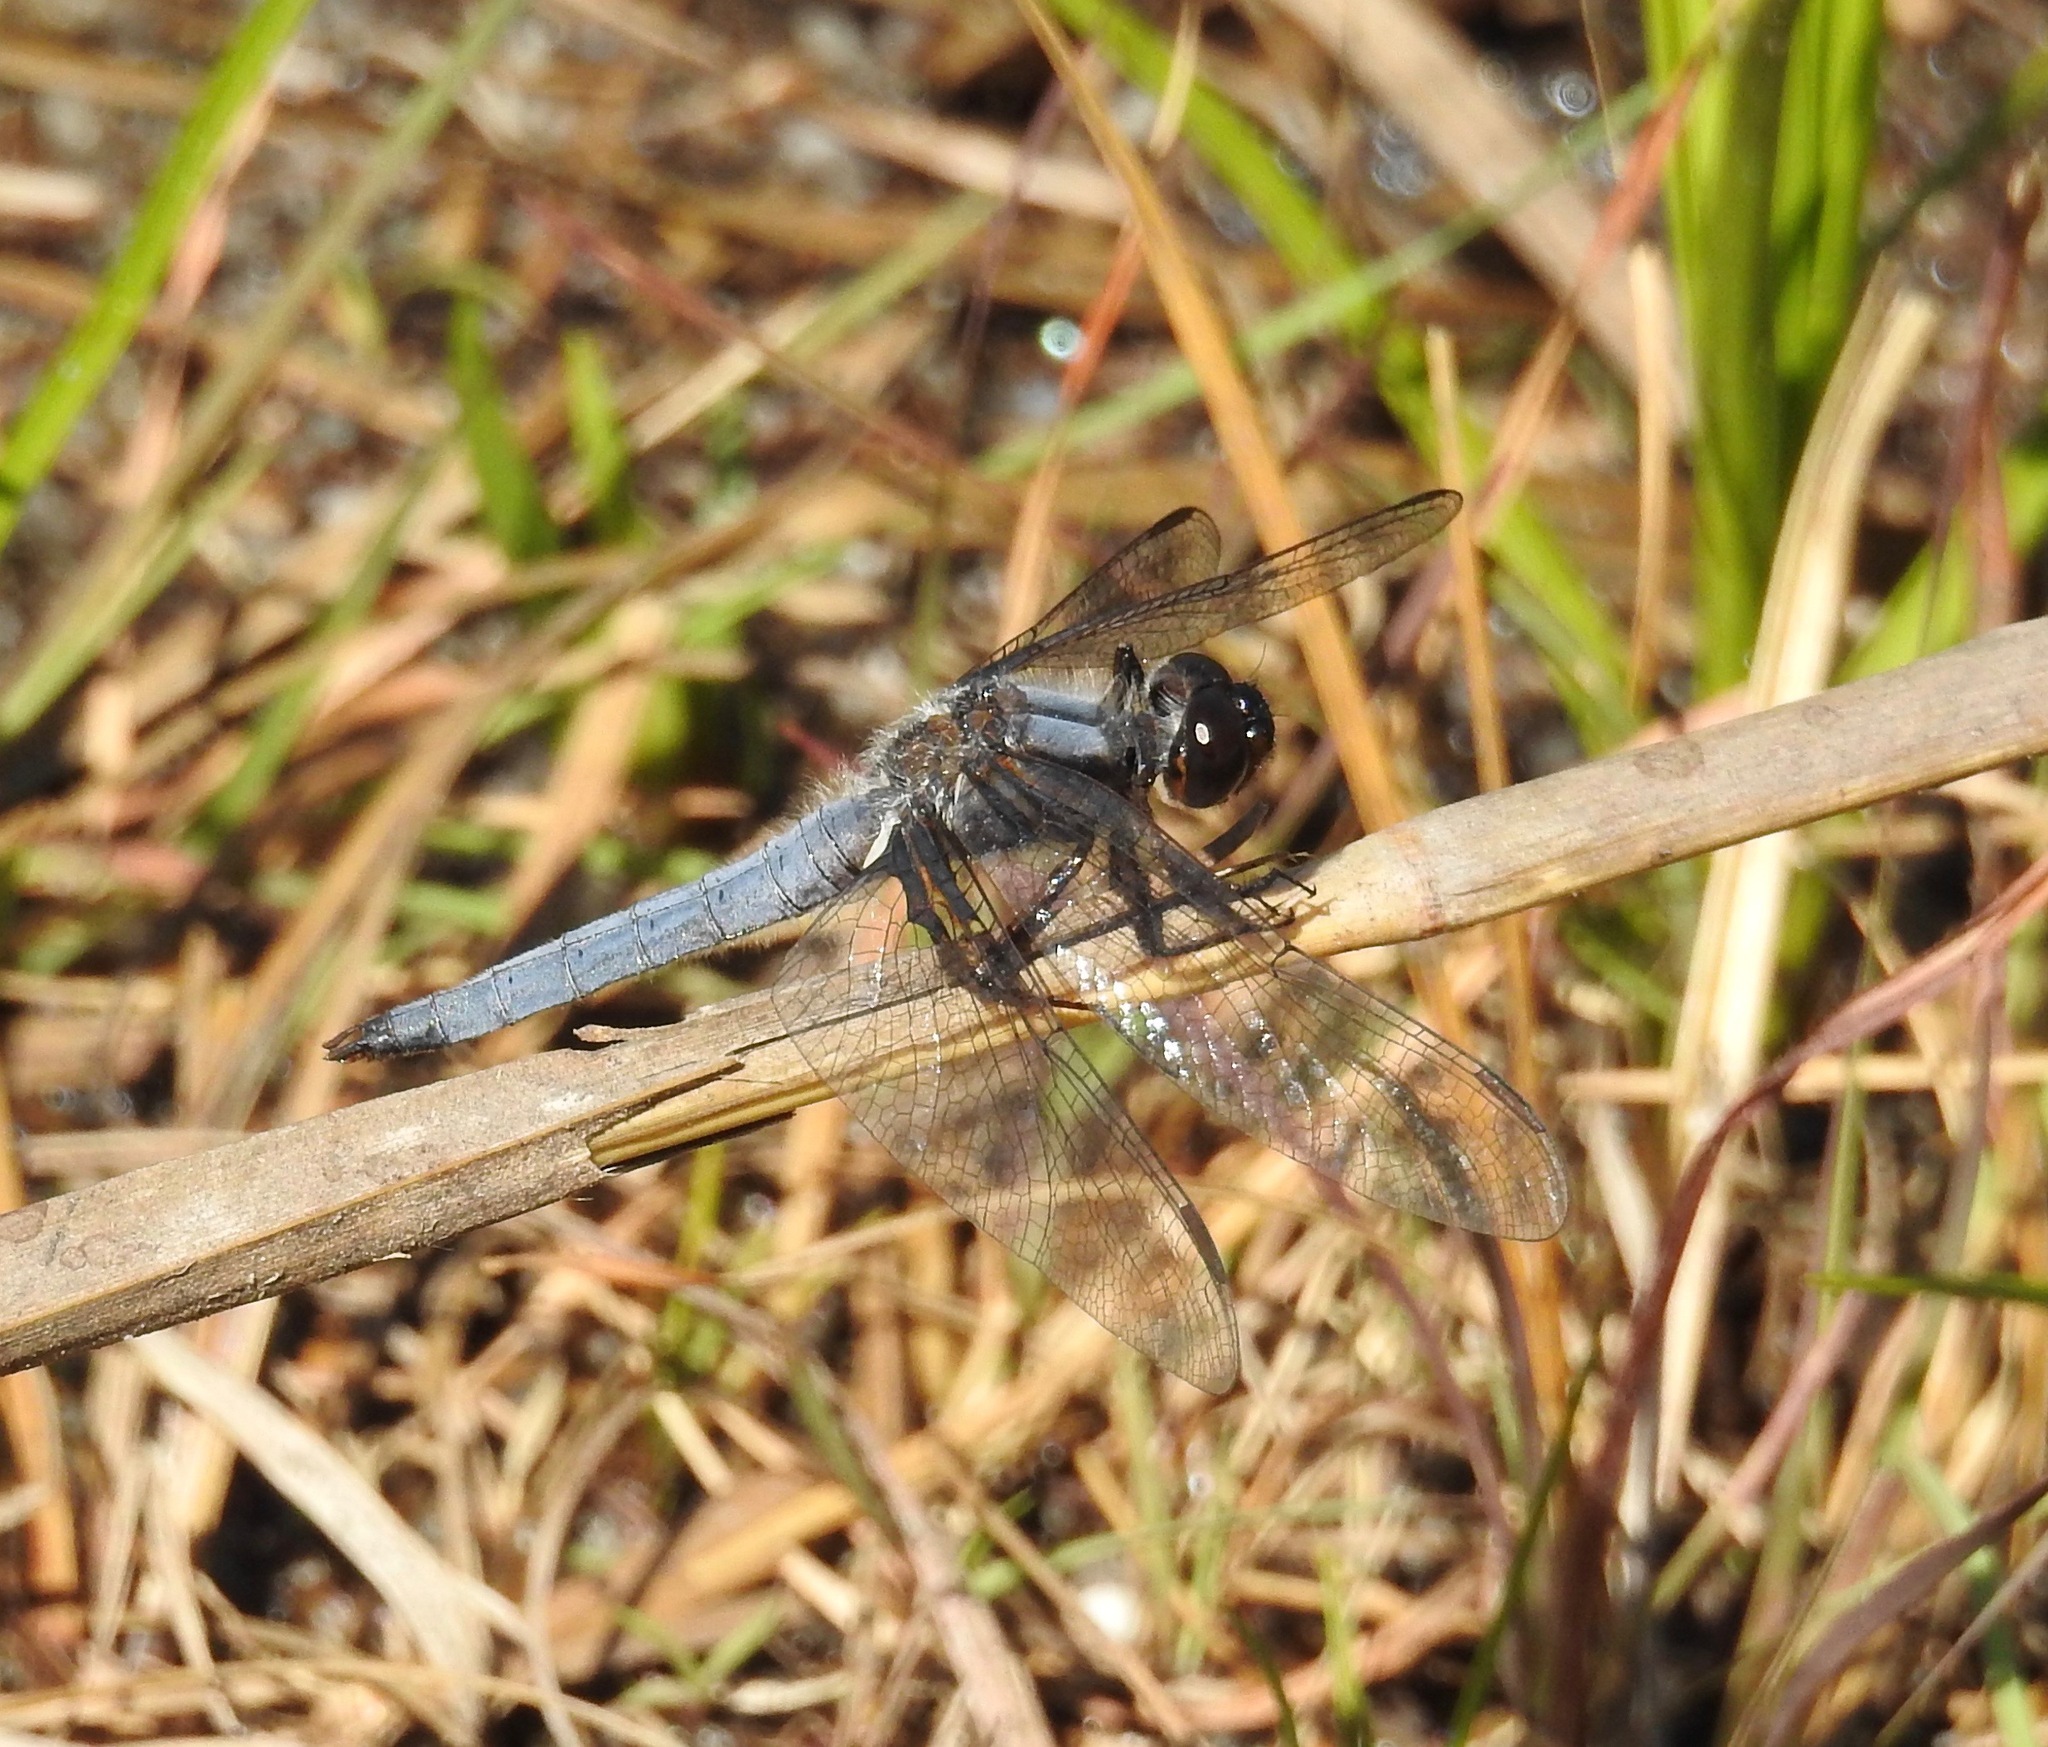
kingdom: Animalia
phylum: Arthropoda
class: Insecta
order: Odonata
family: Libellulidae
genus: Ladona
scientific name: Ladona deplanata
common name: Blue corporal
